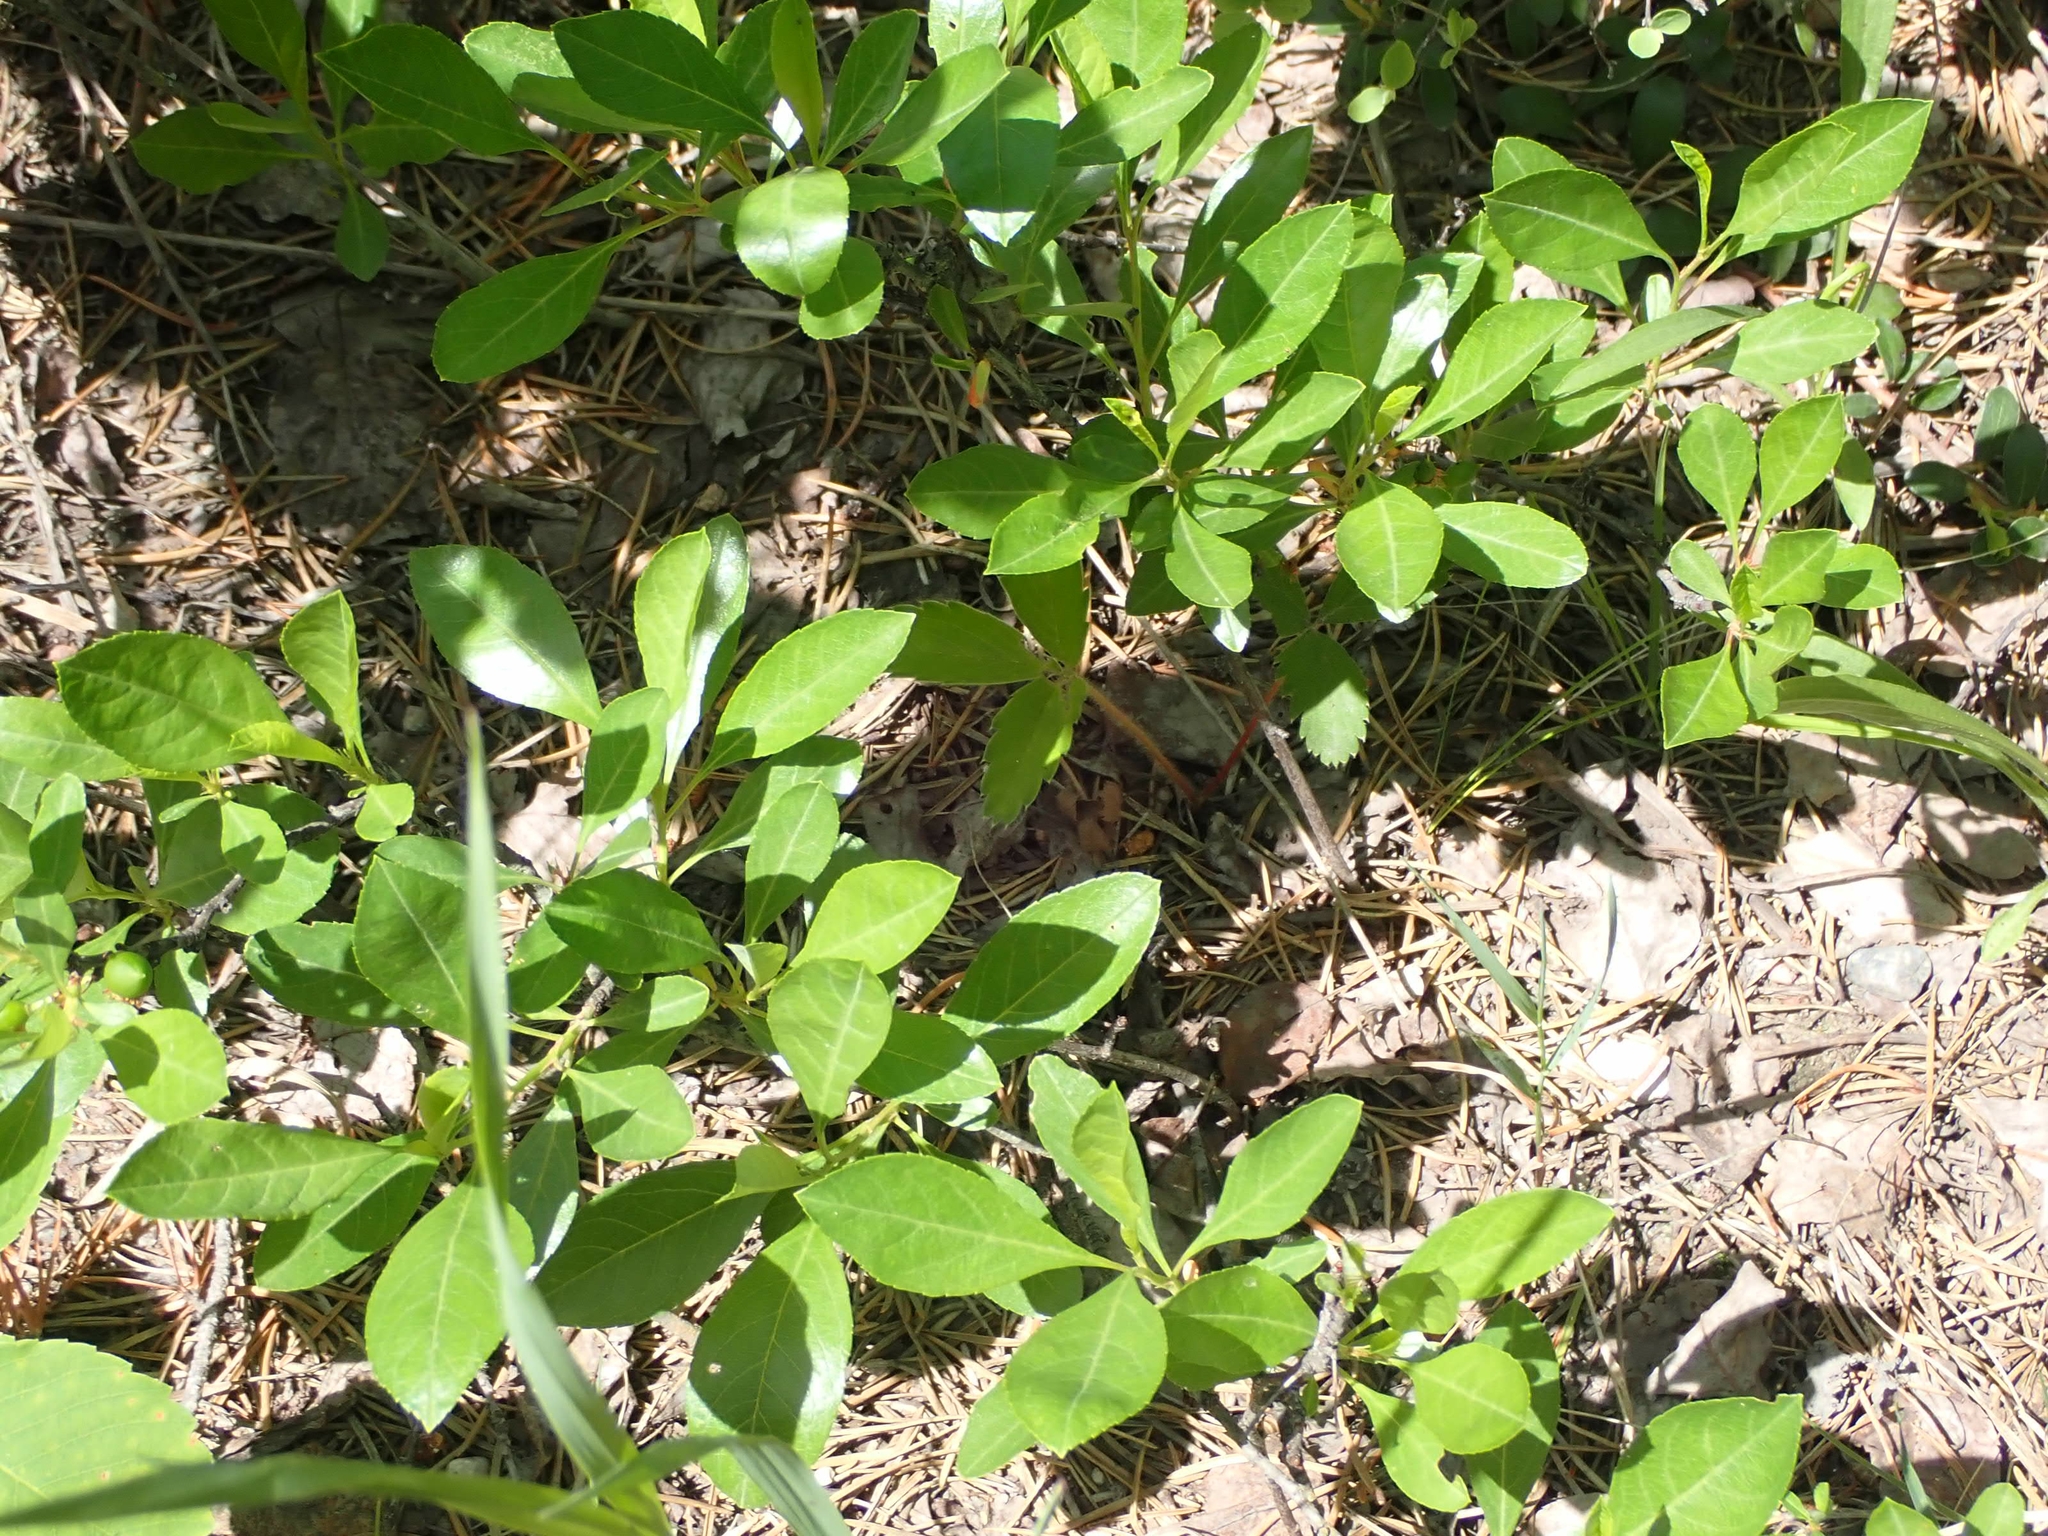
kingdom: Plantae
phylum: Tracheophyta
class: Magnoliopsida
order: Rosales
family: Rosaceae
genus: Prunus
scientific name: Prunus pumila
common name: Dwarf cherry
